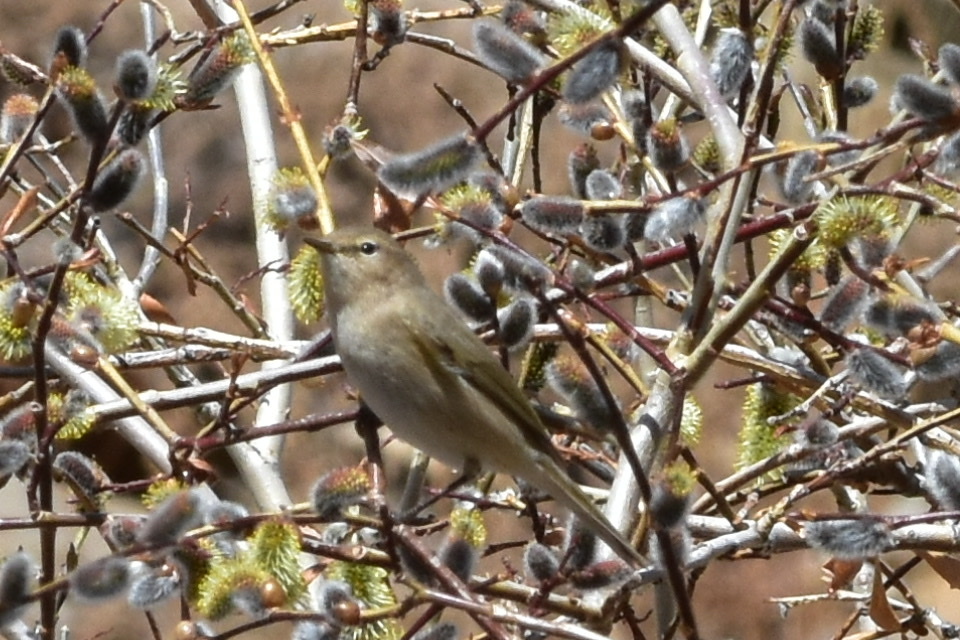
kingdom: Animalia
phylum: Chordata
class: Aves
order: Passeriformes
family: Phylloscopidae
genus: Phylloscopus
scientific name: Phylloscopus collybita
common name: Common chiffchaff
